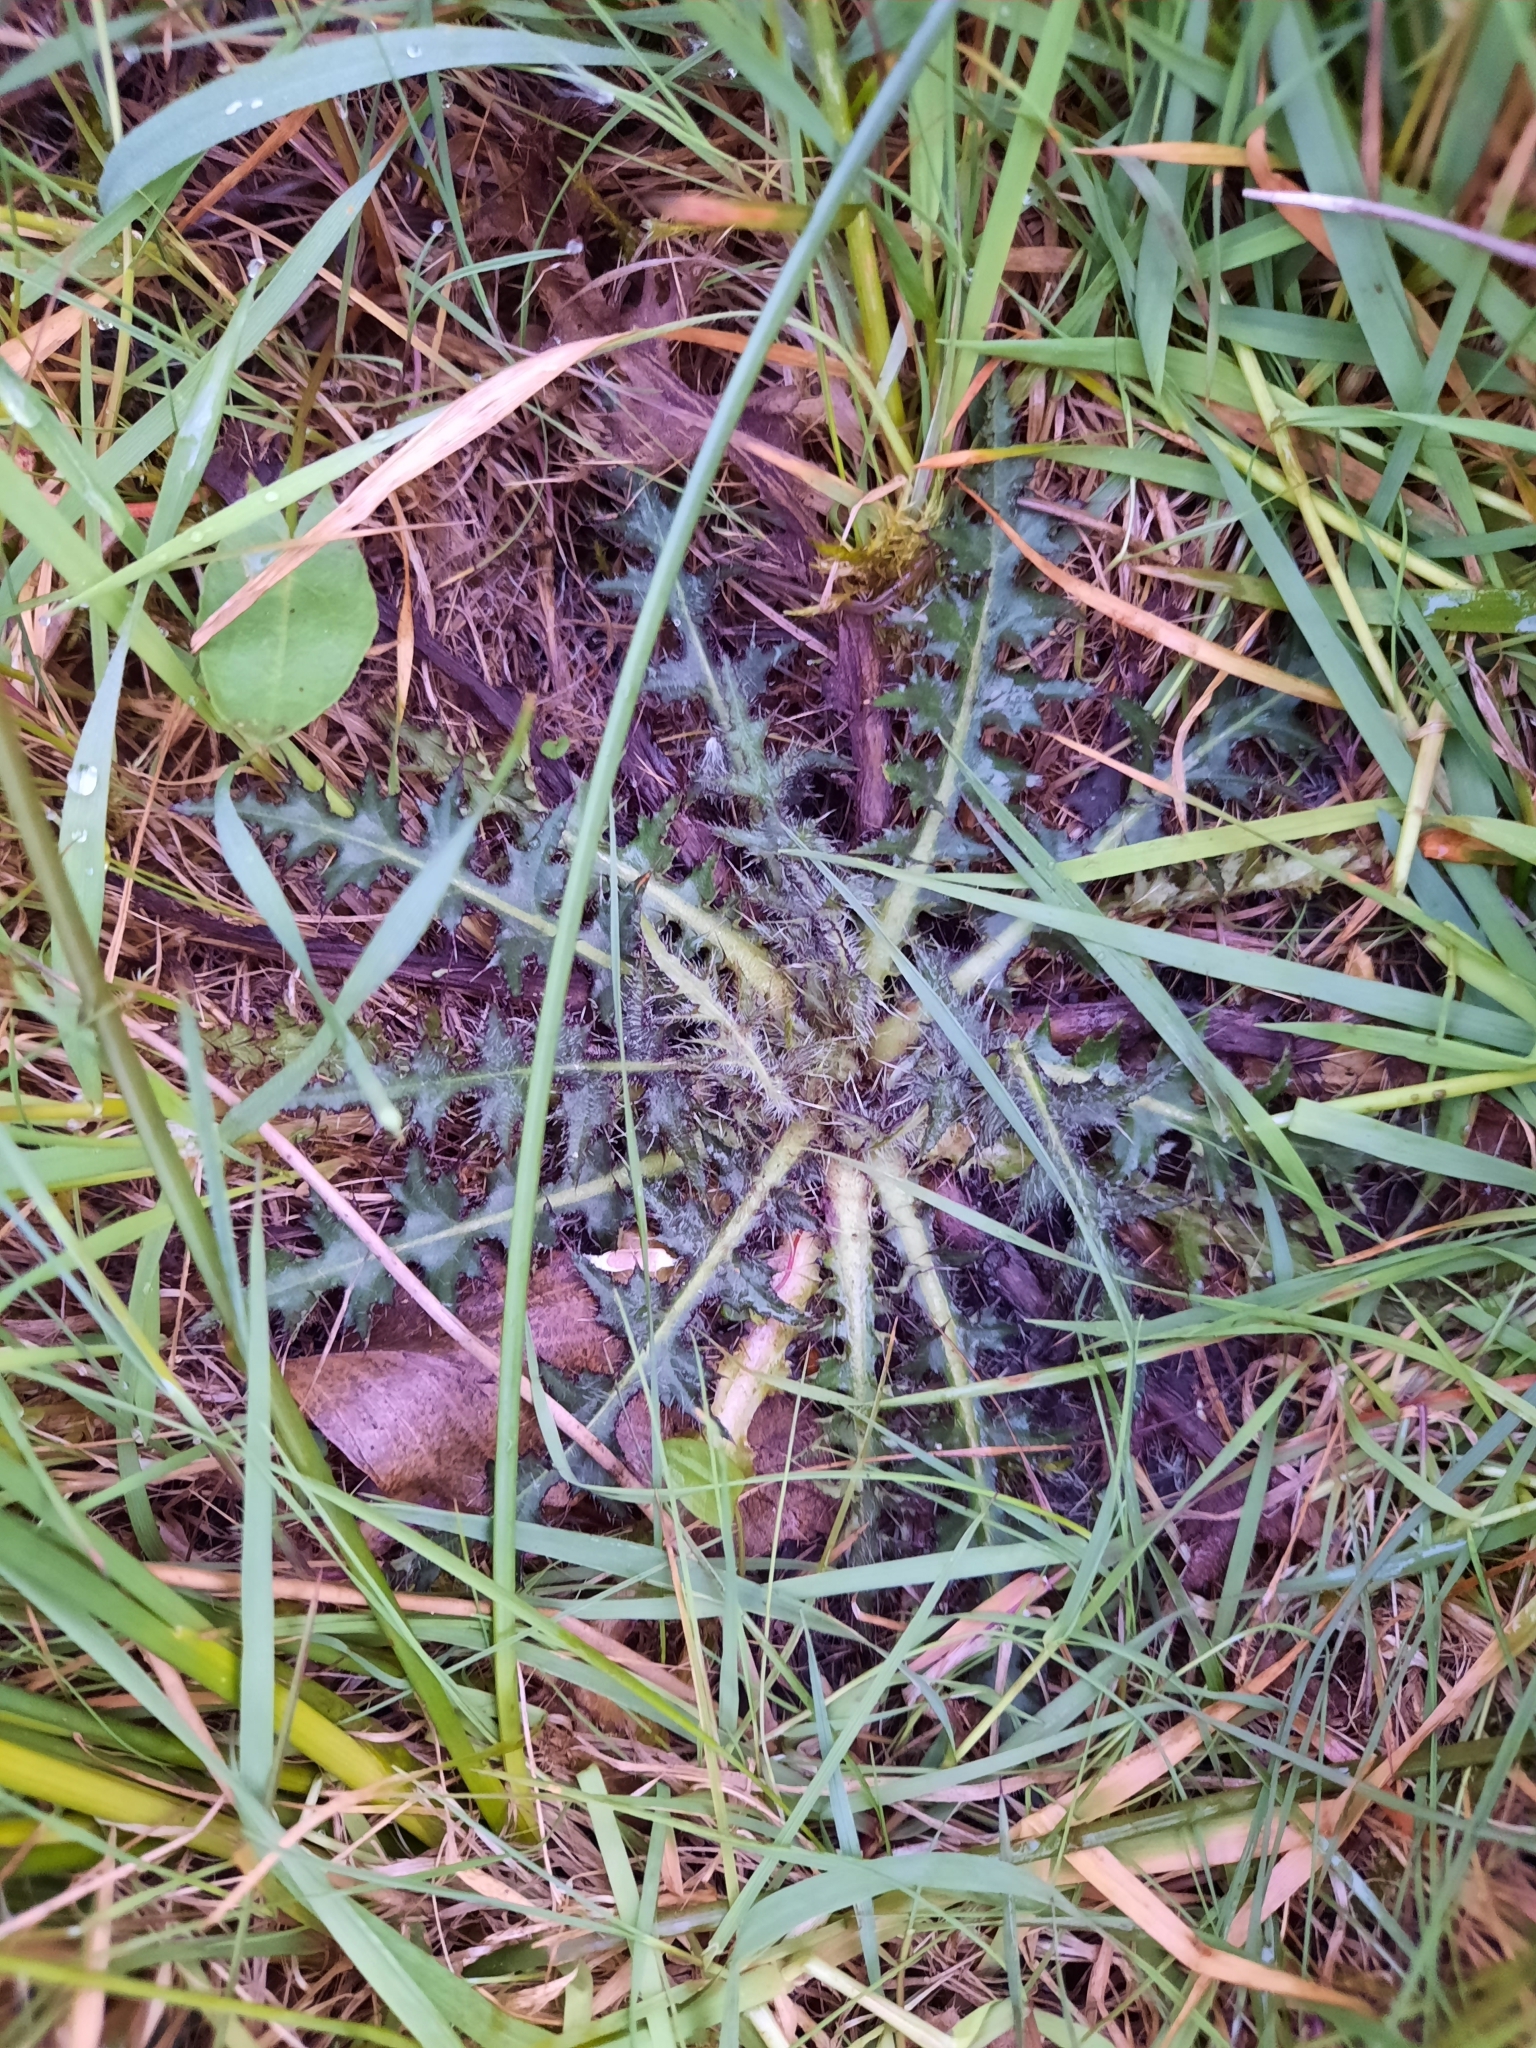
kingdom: Plantae
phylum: Tracheophyta
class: Magnoliopsida
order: Asterales
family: Asteraceae
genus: Cirsium
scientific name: Cirsium palustre
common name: Marsh thistle
